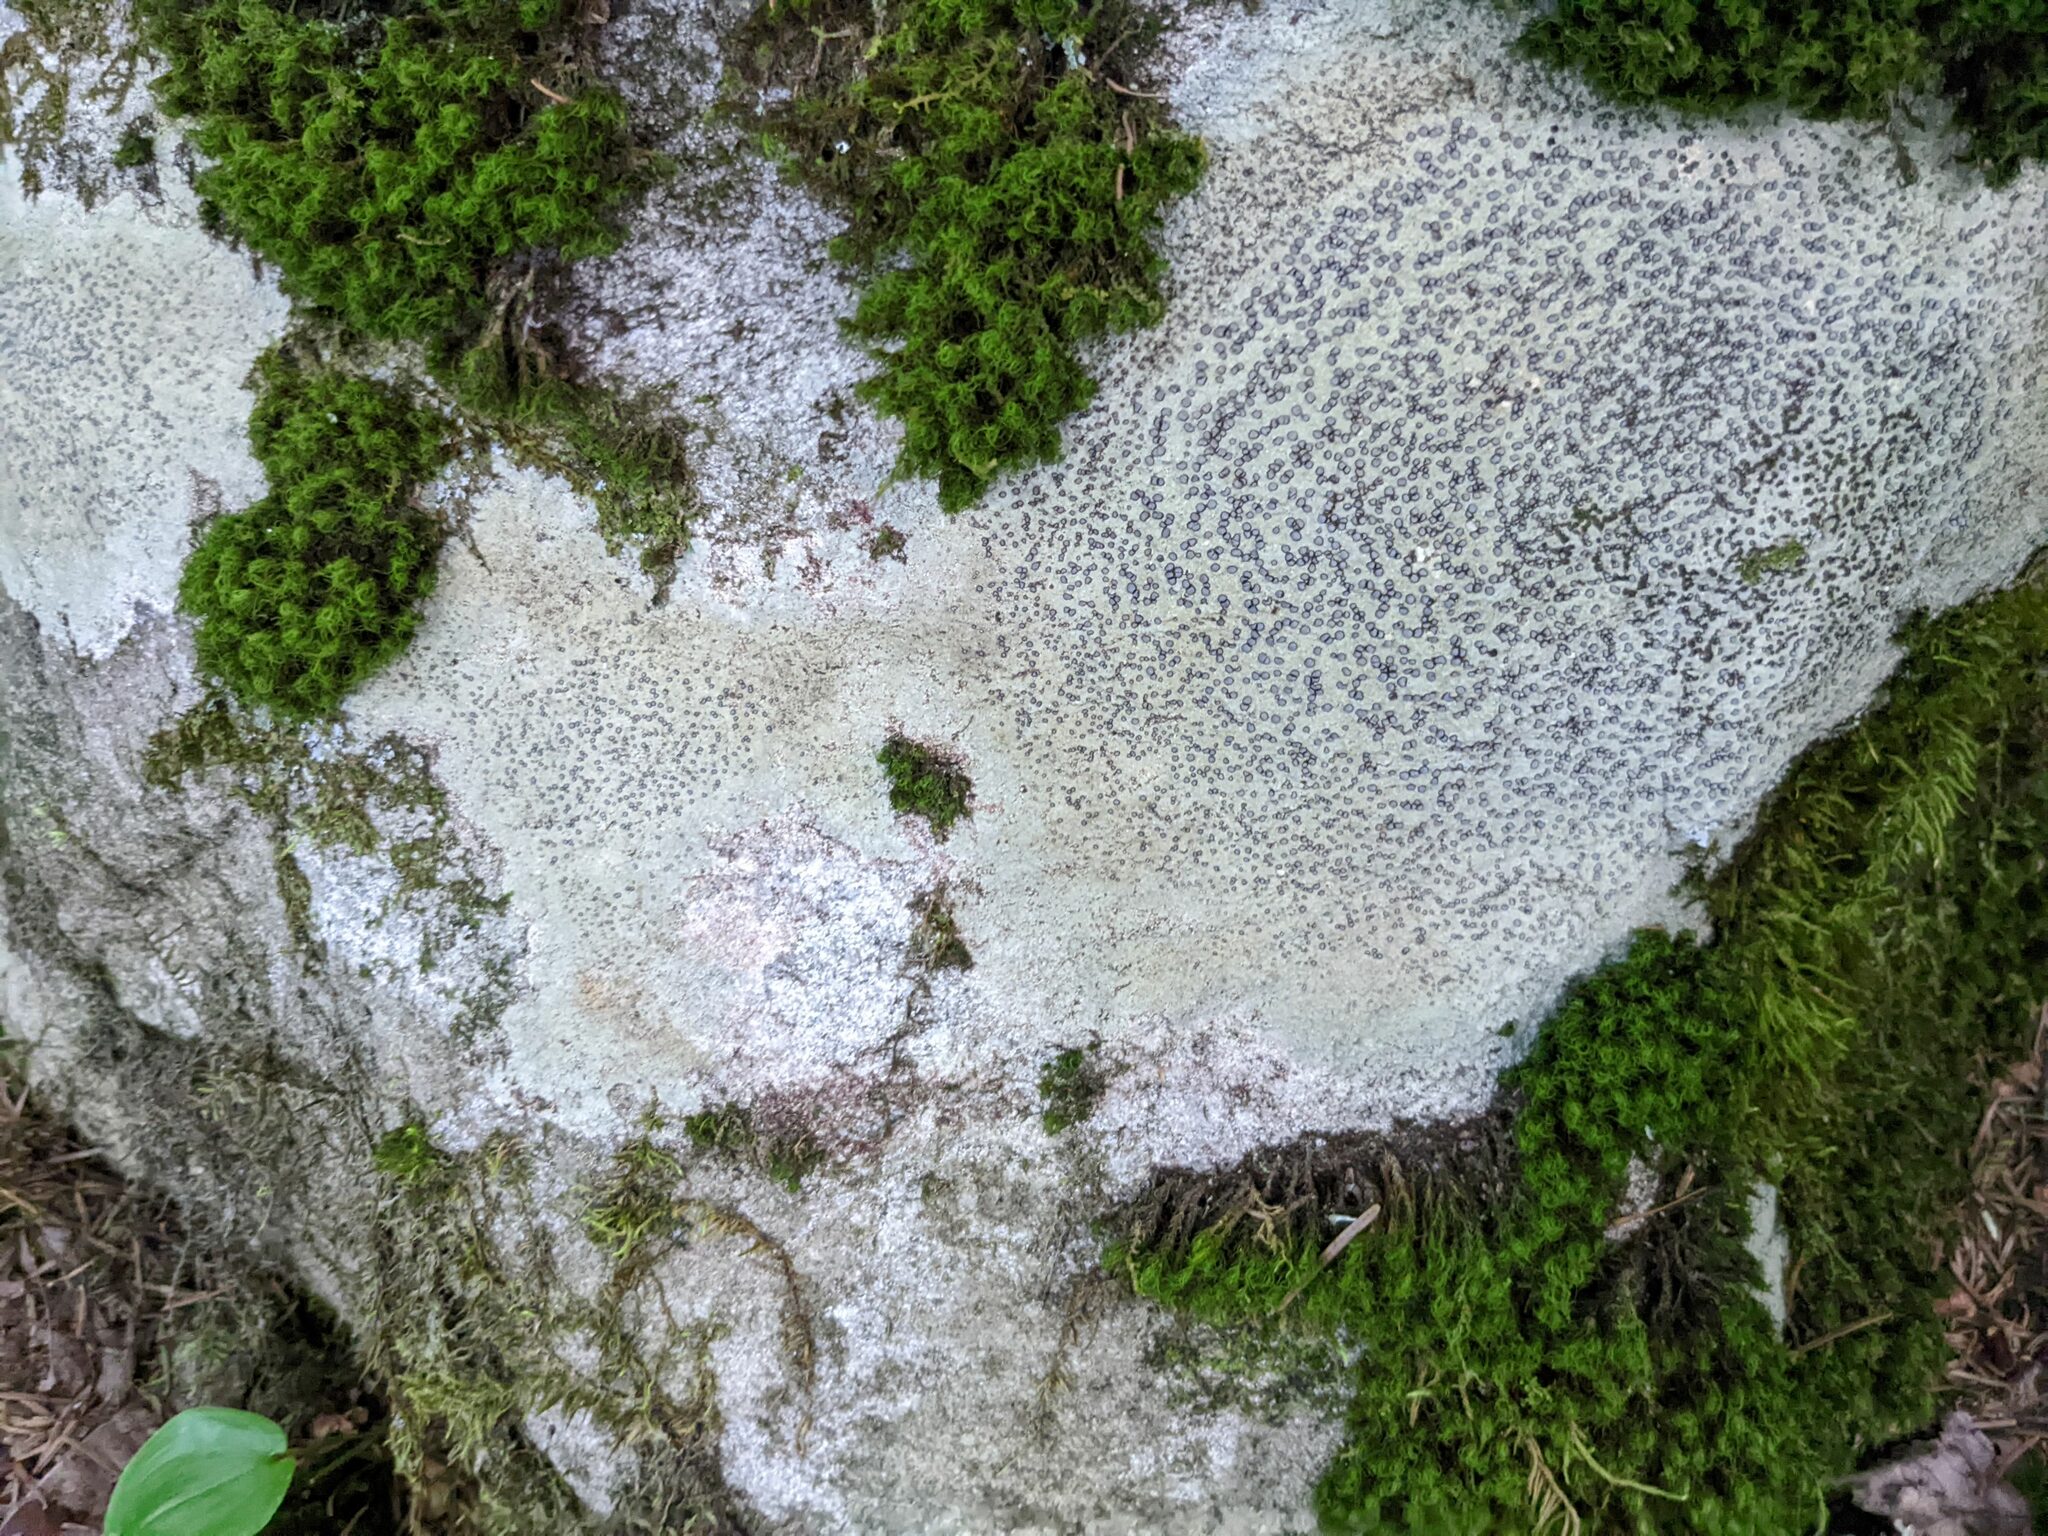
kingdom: Fungi
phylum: Ascomycota
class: Lecanoromycetes
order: Lecideales
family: Lecideaceae
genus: Porpidia
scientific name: Porpidia albocaerulescens
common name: Smokey-eyed boulder lichen
